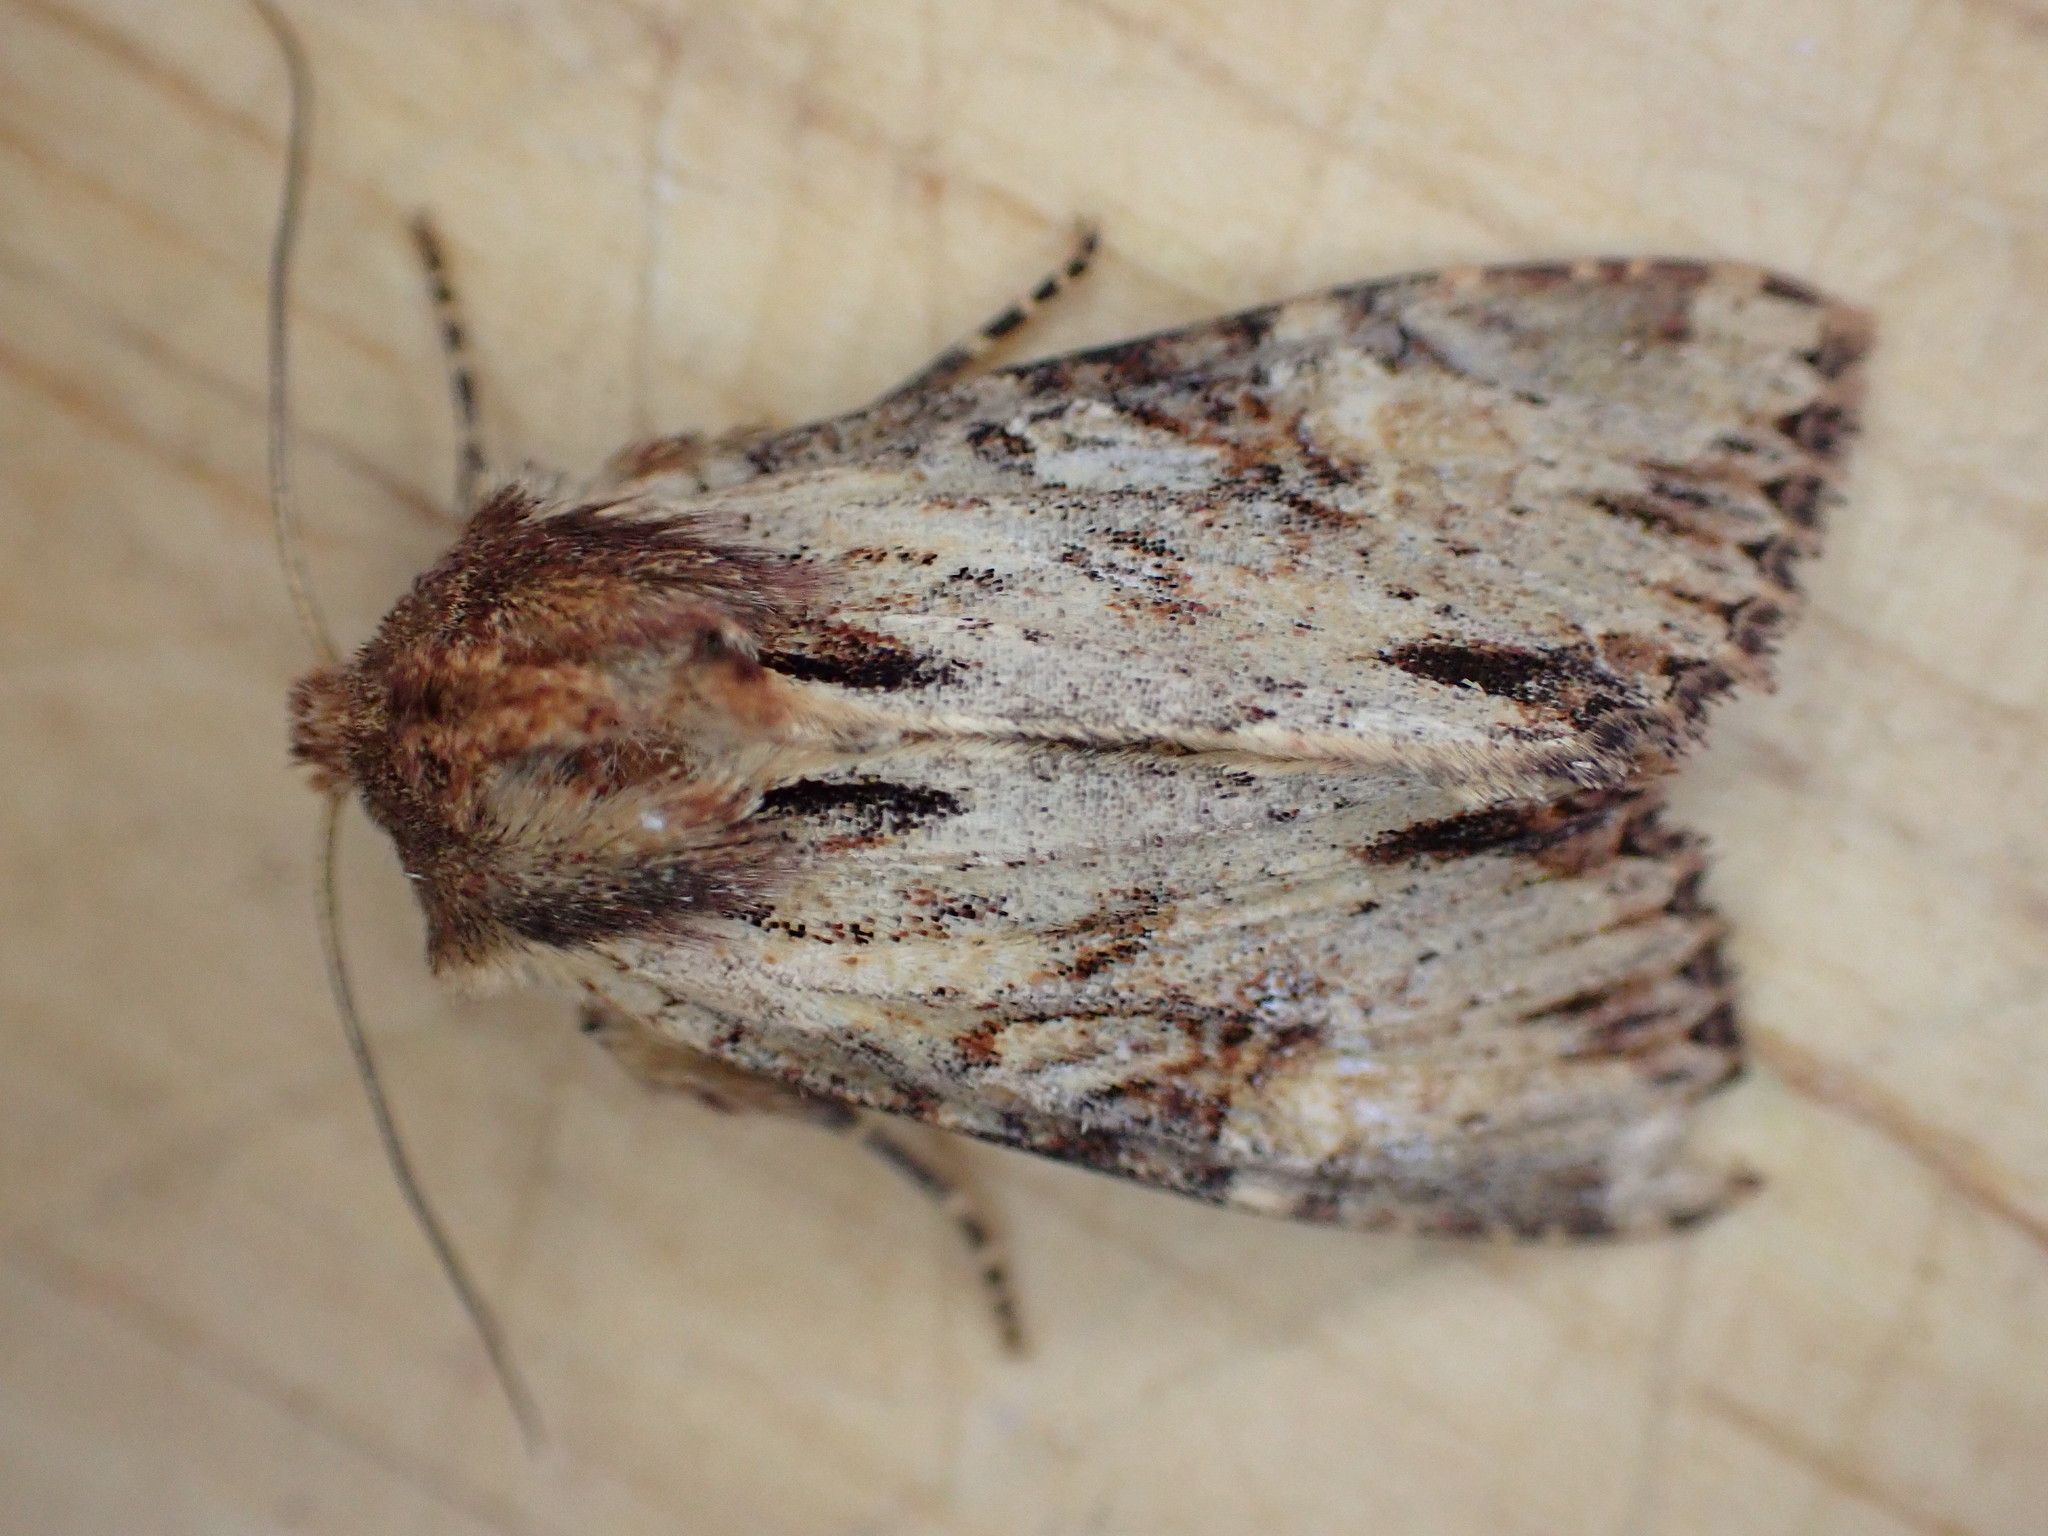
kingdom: Animalia
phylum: Arthropoda
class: Insecta
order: Lepidoptera
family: Noctuidae
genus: Apamea
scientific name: Apamea crenata
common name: Clouded-bordered brindle
